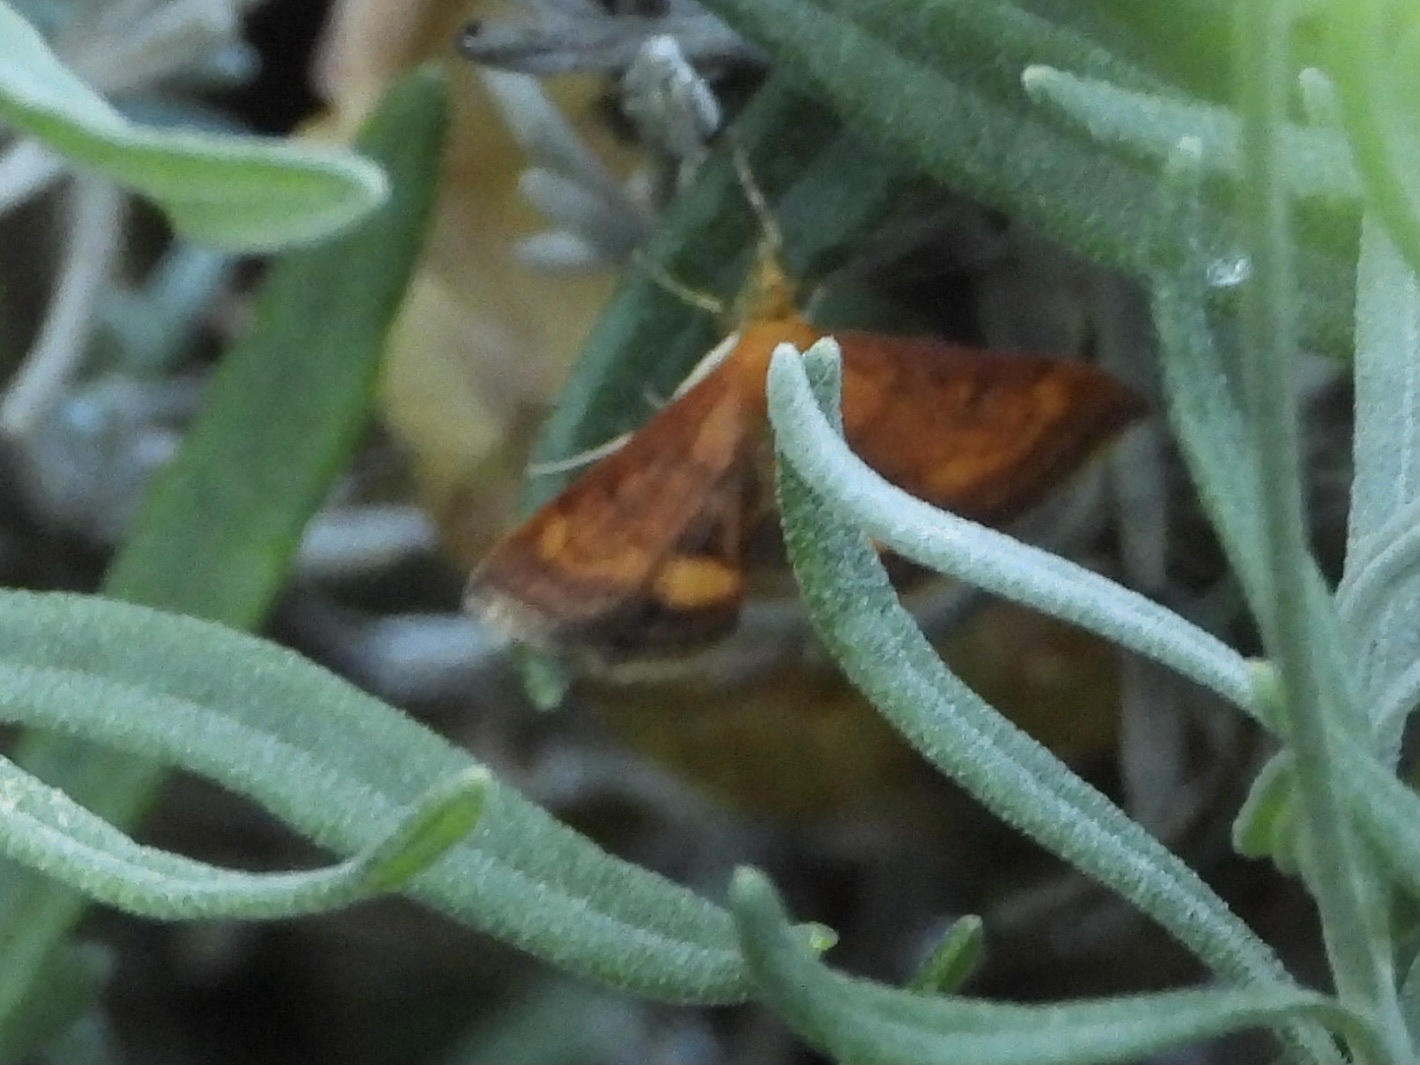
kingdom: Animalia
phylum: Arthropoda
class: Insecta
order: Lepidoptera
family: Crambidae
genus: Pyrausta
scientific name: Pyrausta californicalis
